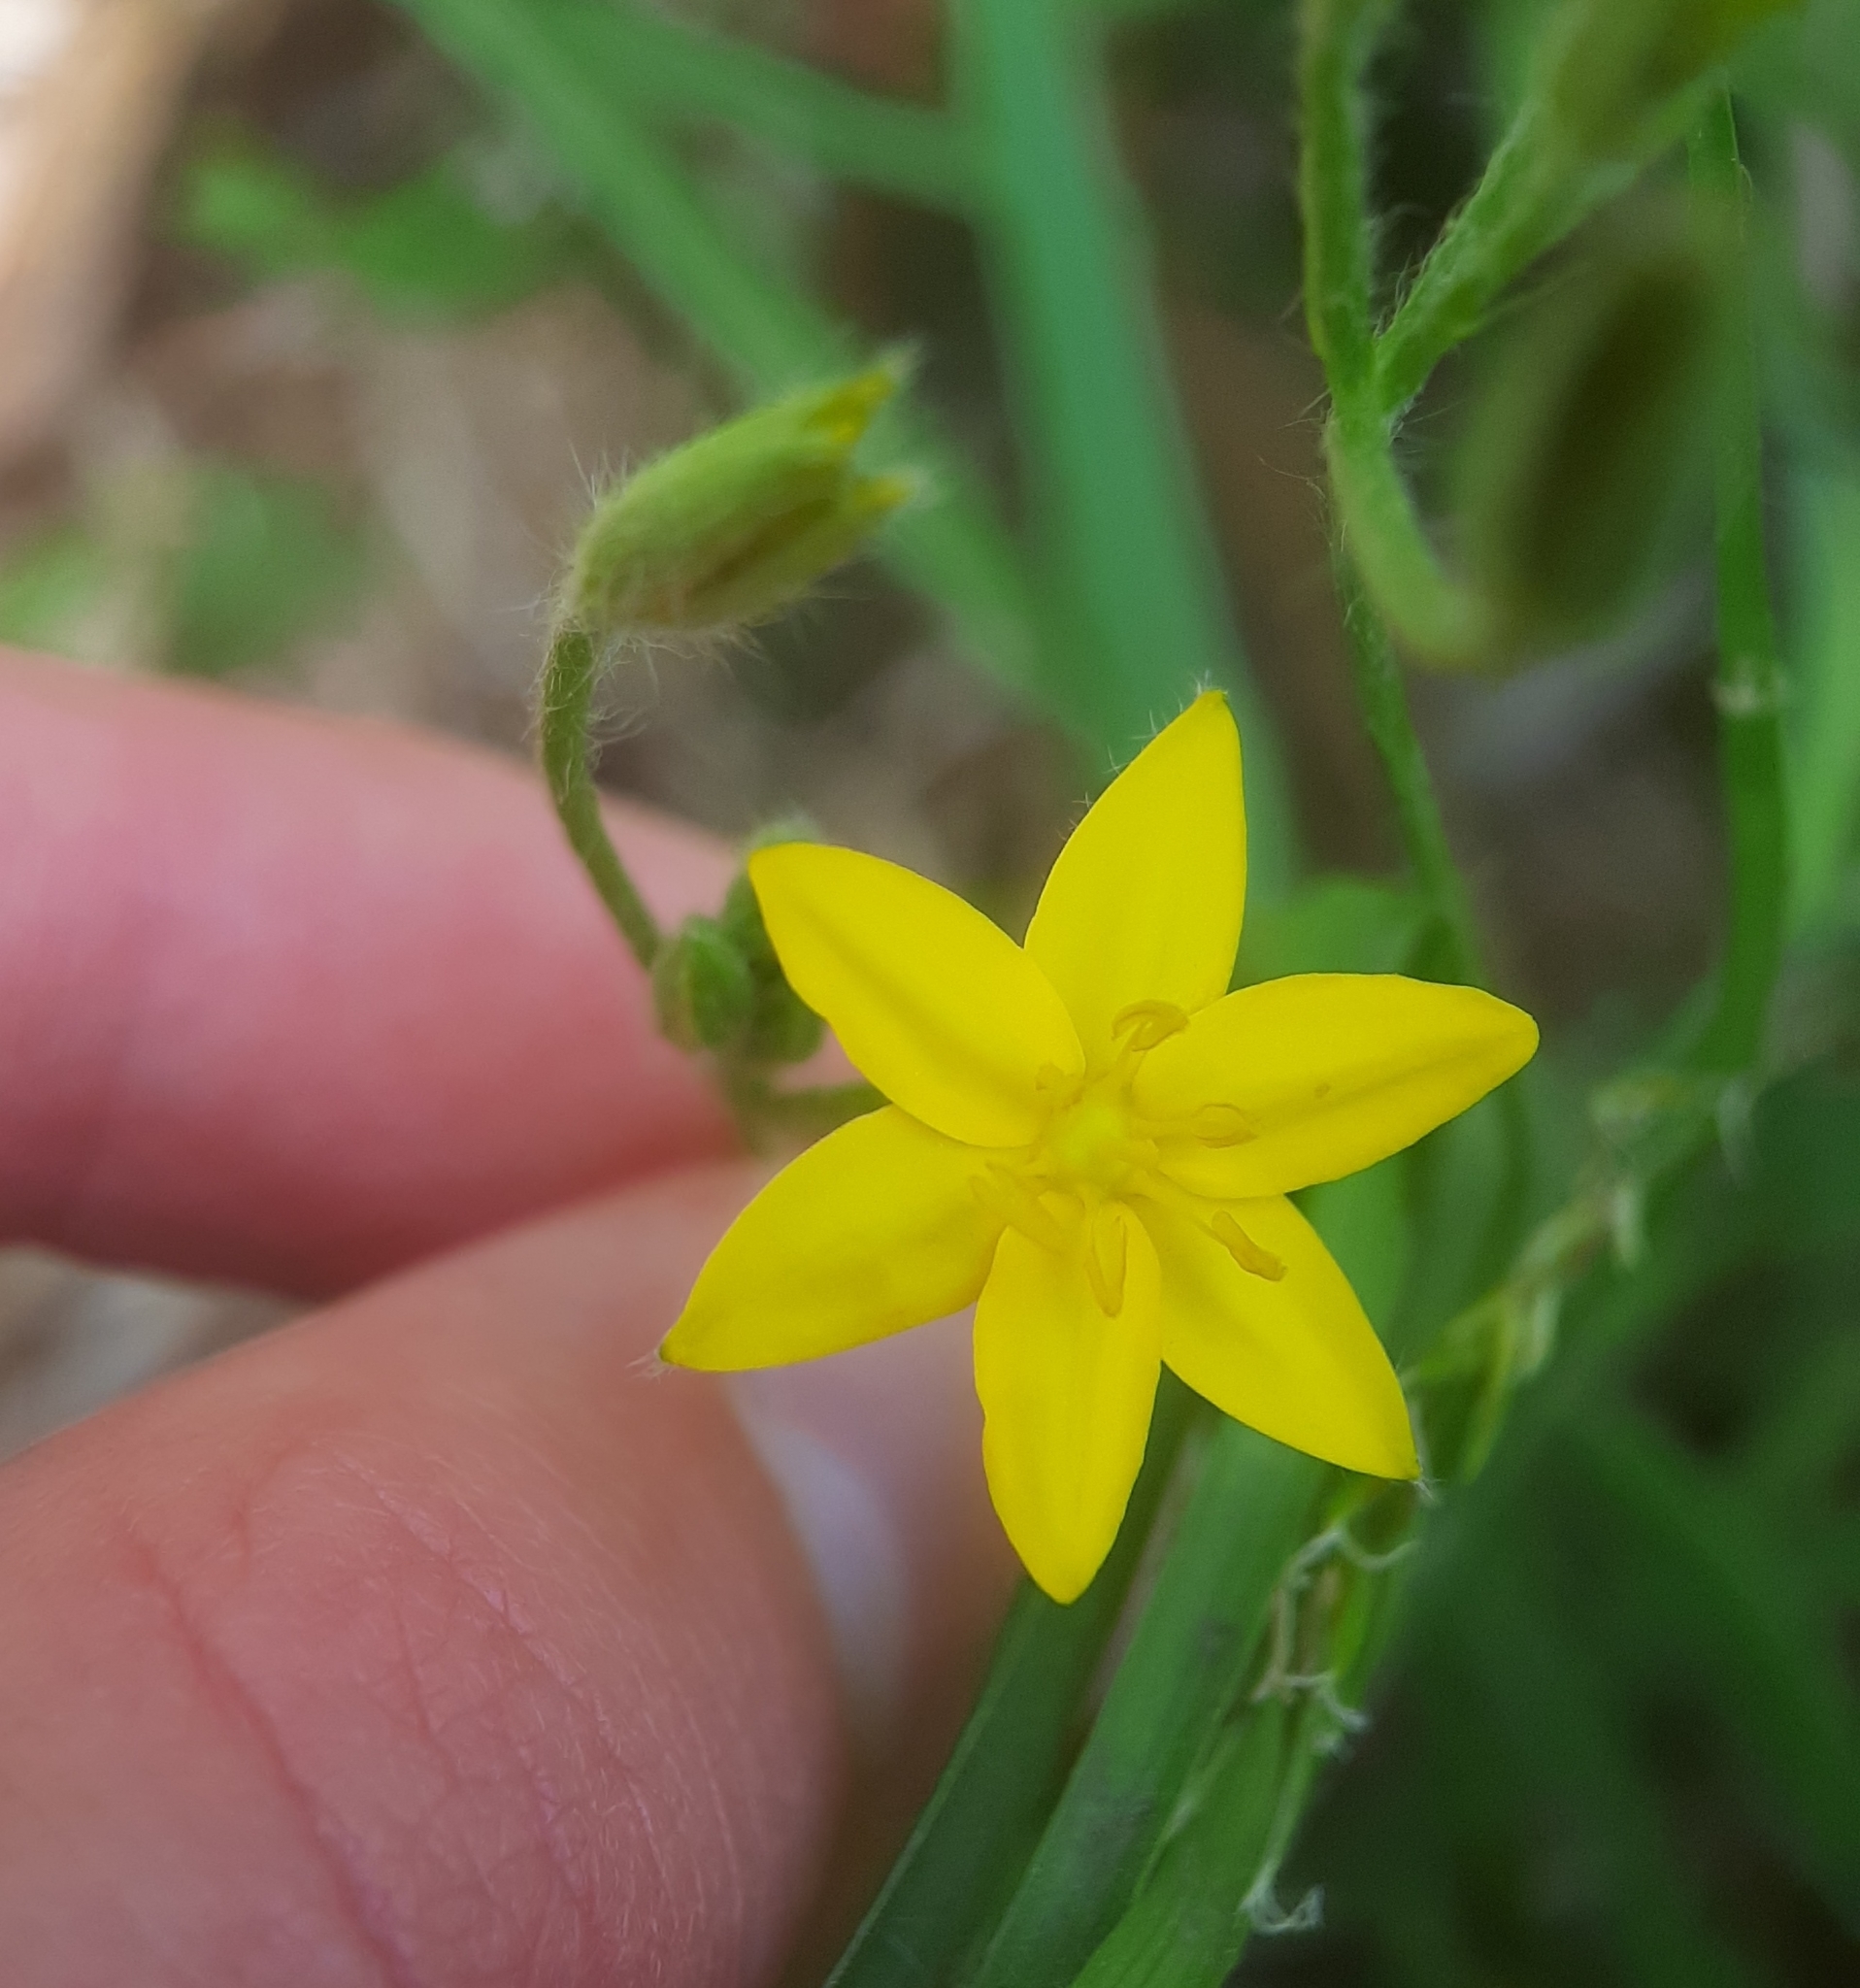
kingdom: Plantae
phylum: Tracheophyta
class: Liliopsida
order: Asparagales
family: Hypoxidaceae
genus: Hypoxis
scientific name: Hypoxis hirsuta
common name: Common goldstar
